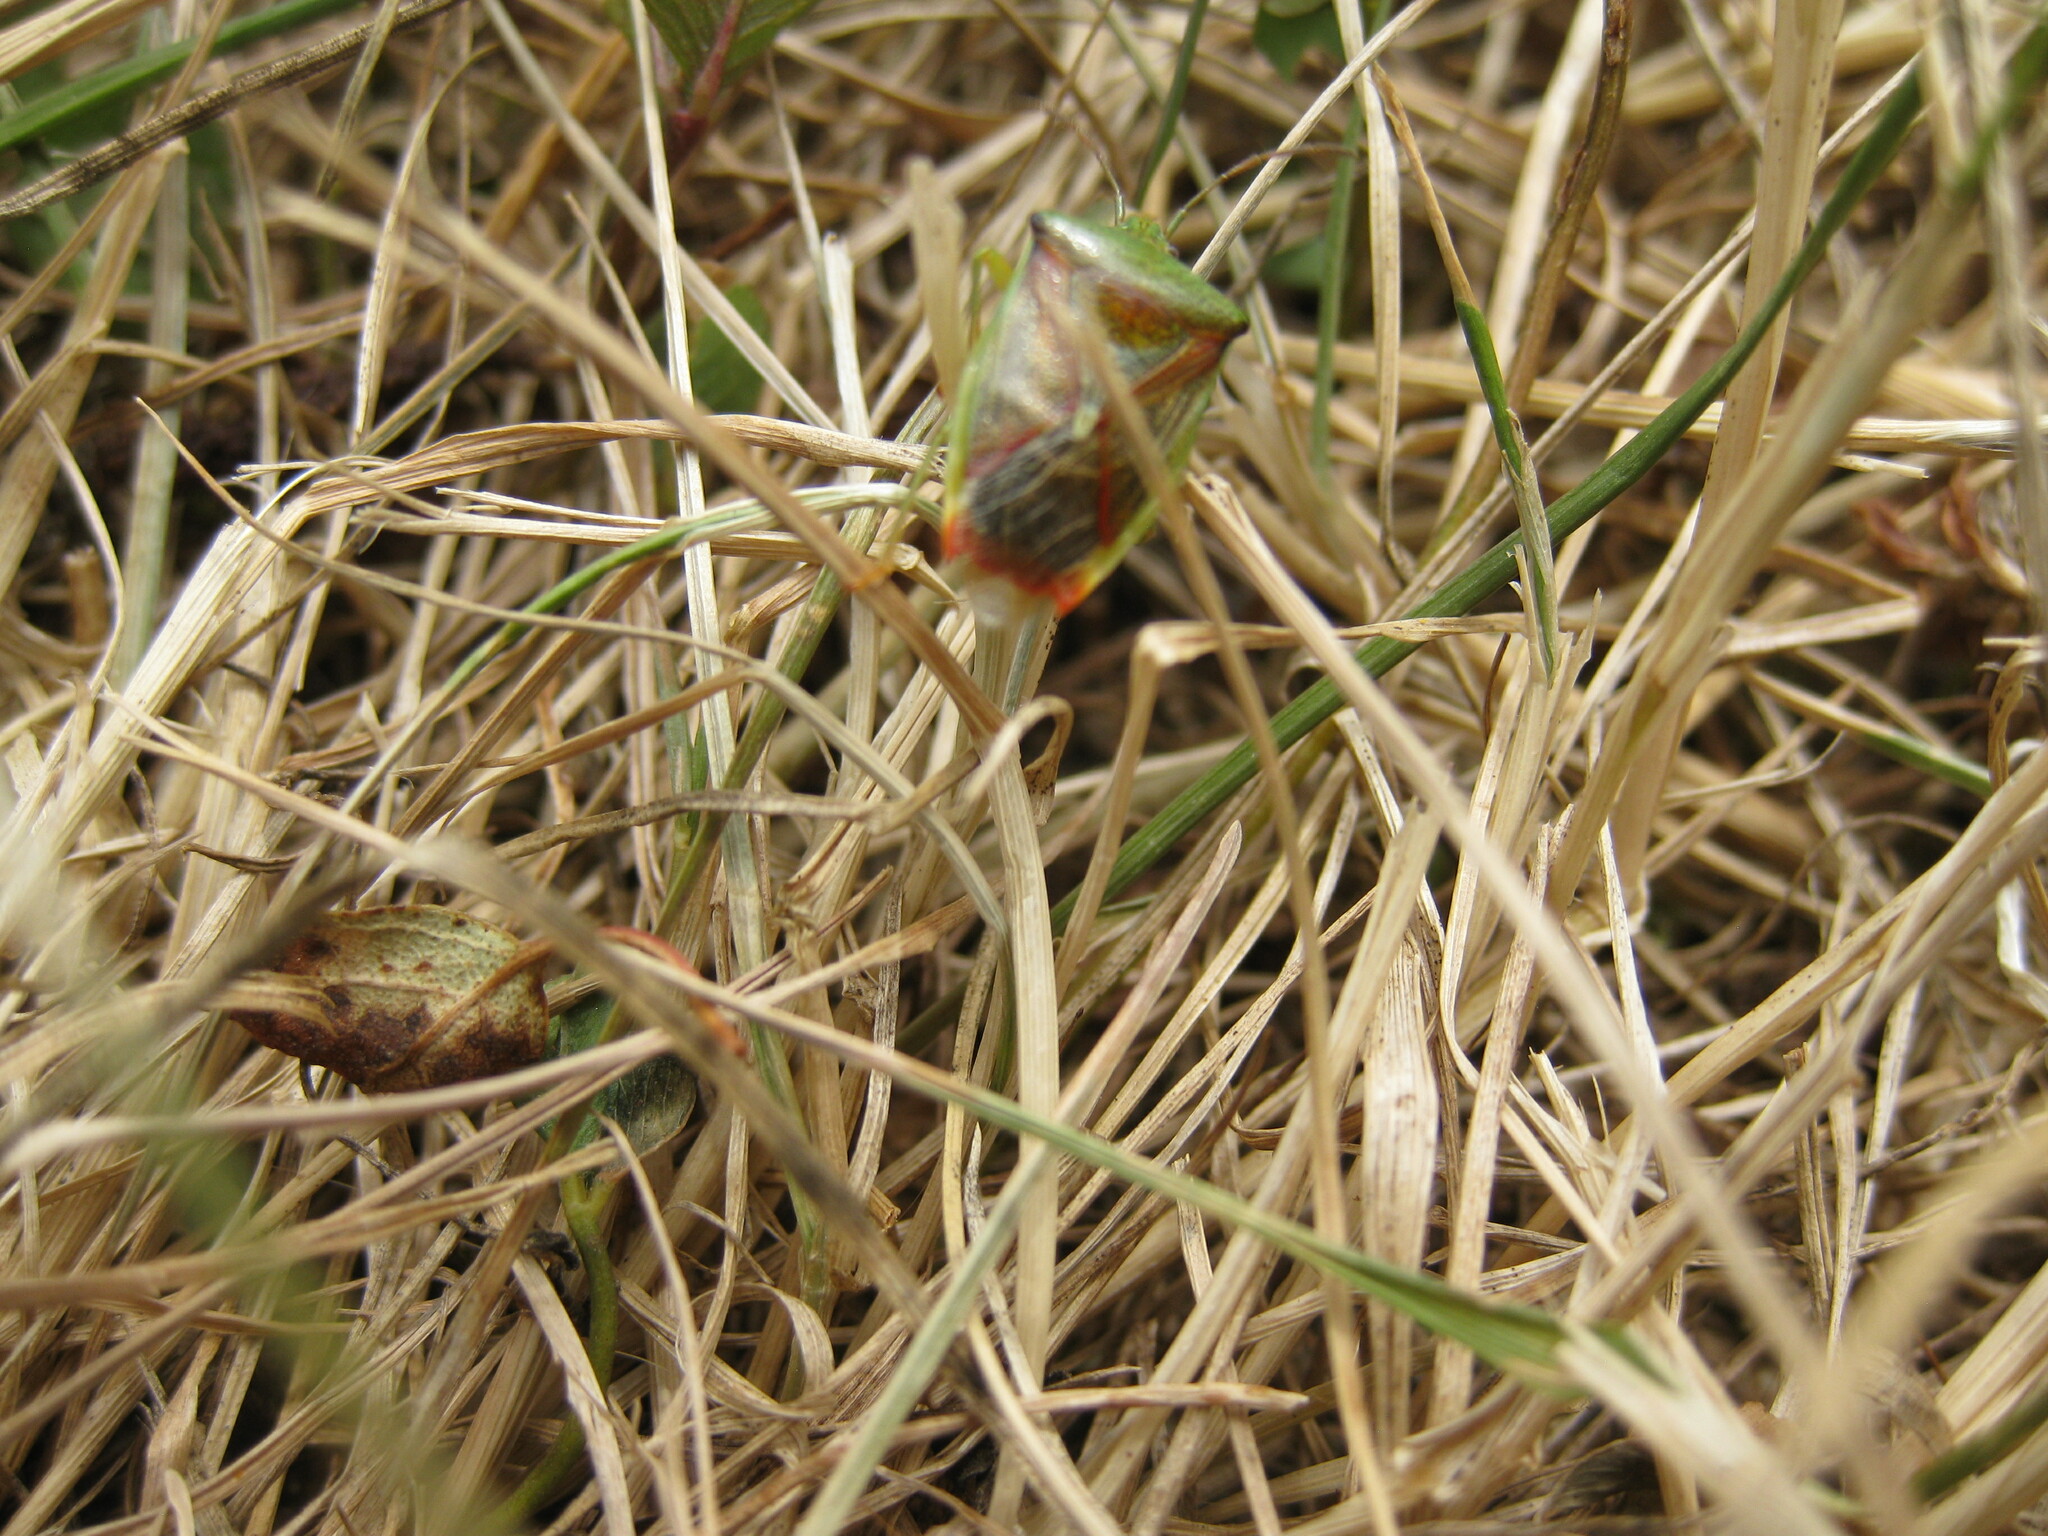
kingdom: Animalia
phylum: Arthropoda
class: Insecta
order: Hemiptera
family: Acanthosomatidae
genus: Elasmostethus
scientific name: Elasmostethus interstinctus
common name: Birch shieldbug
